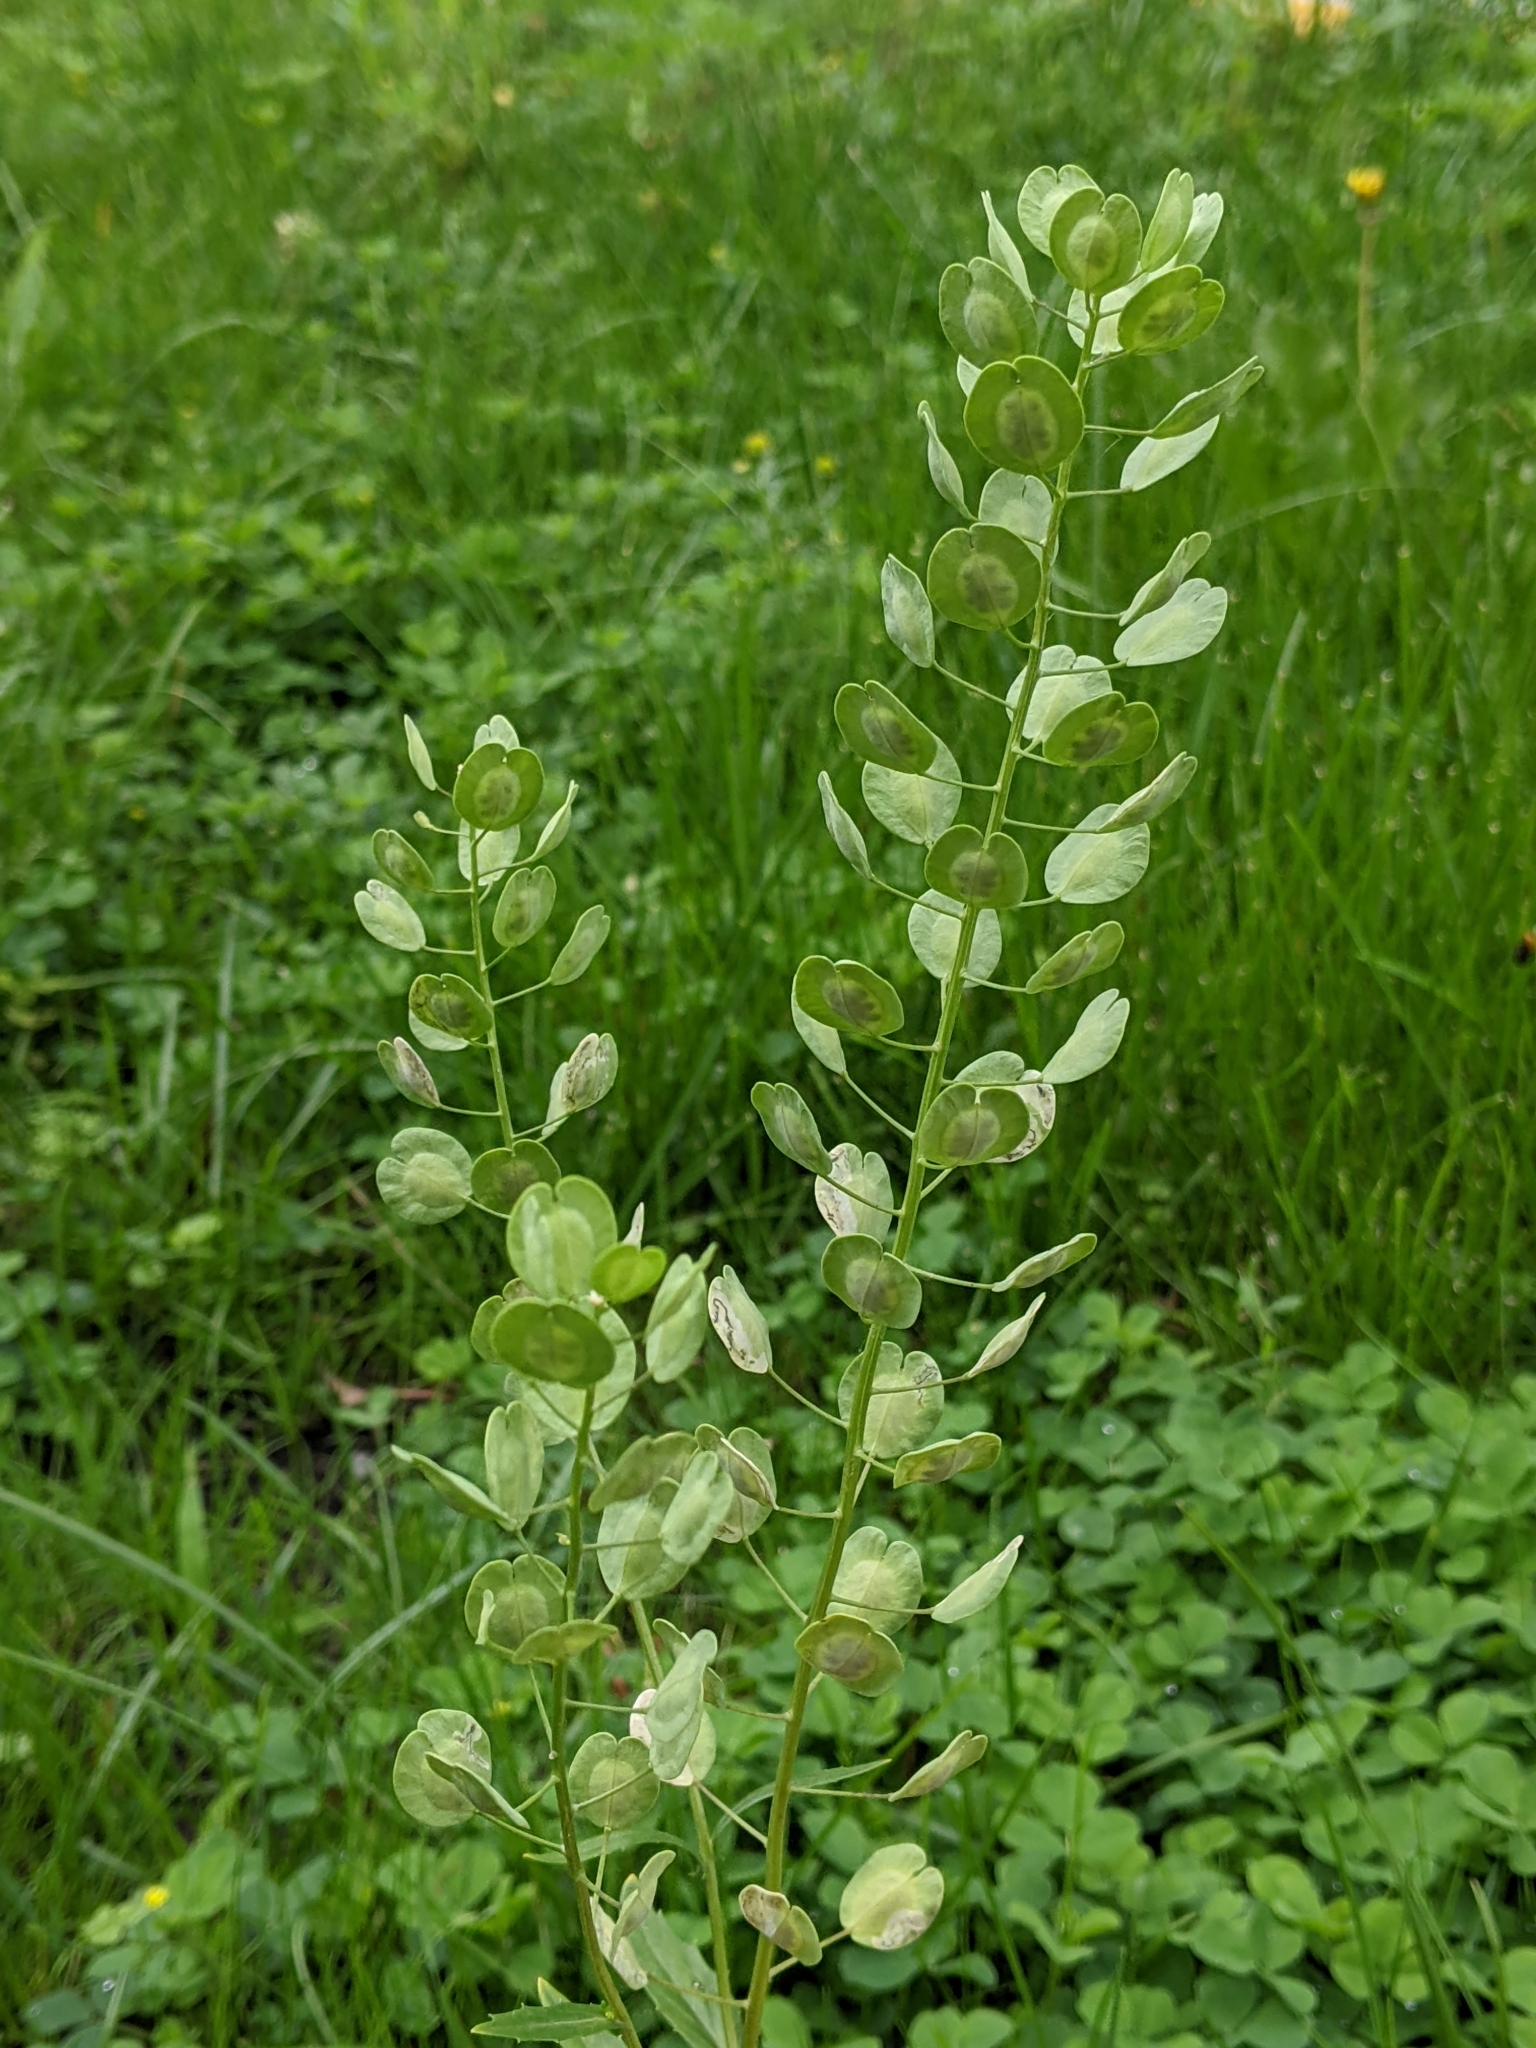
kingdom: Plantae
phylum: Tracheophyta
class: Magnoliopsida
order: Brassicales
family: Brassicaceae
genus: Thlaspi
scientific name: Thlaspi arvense
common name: Field pennycress
